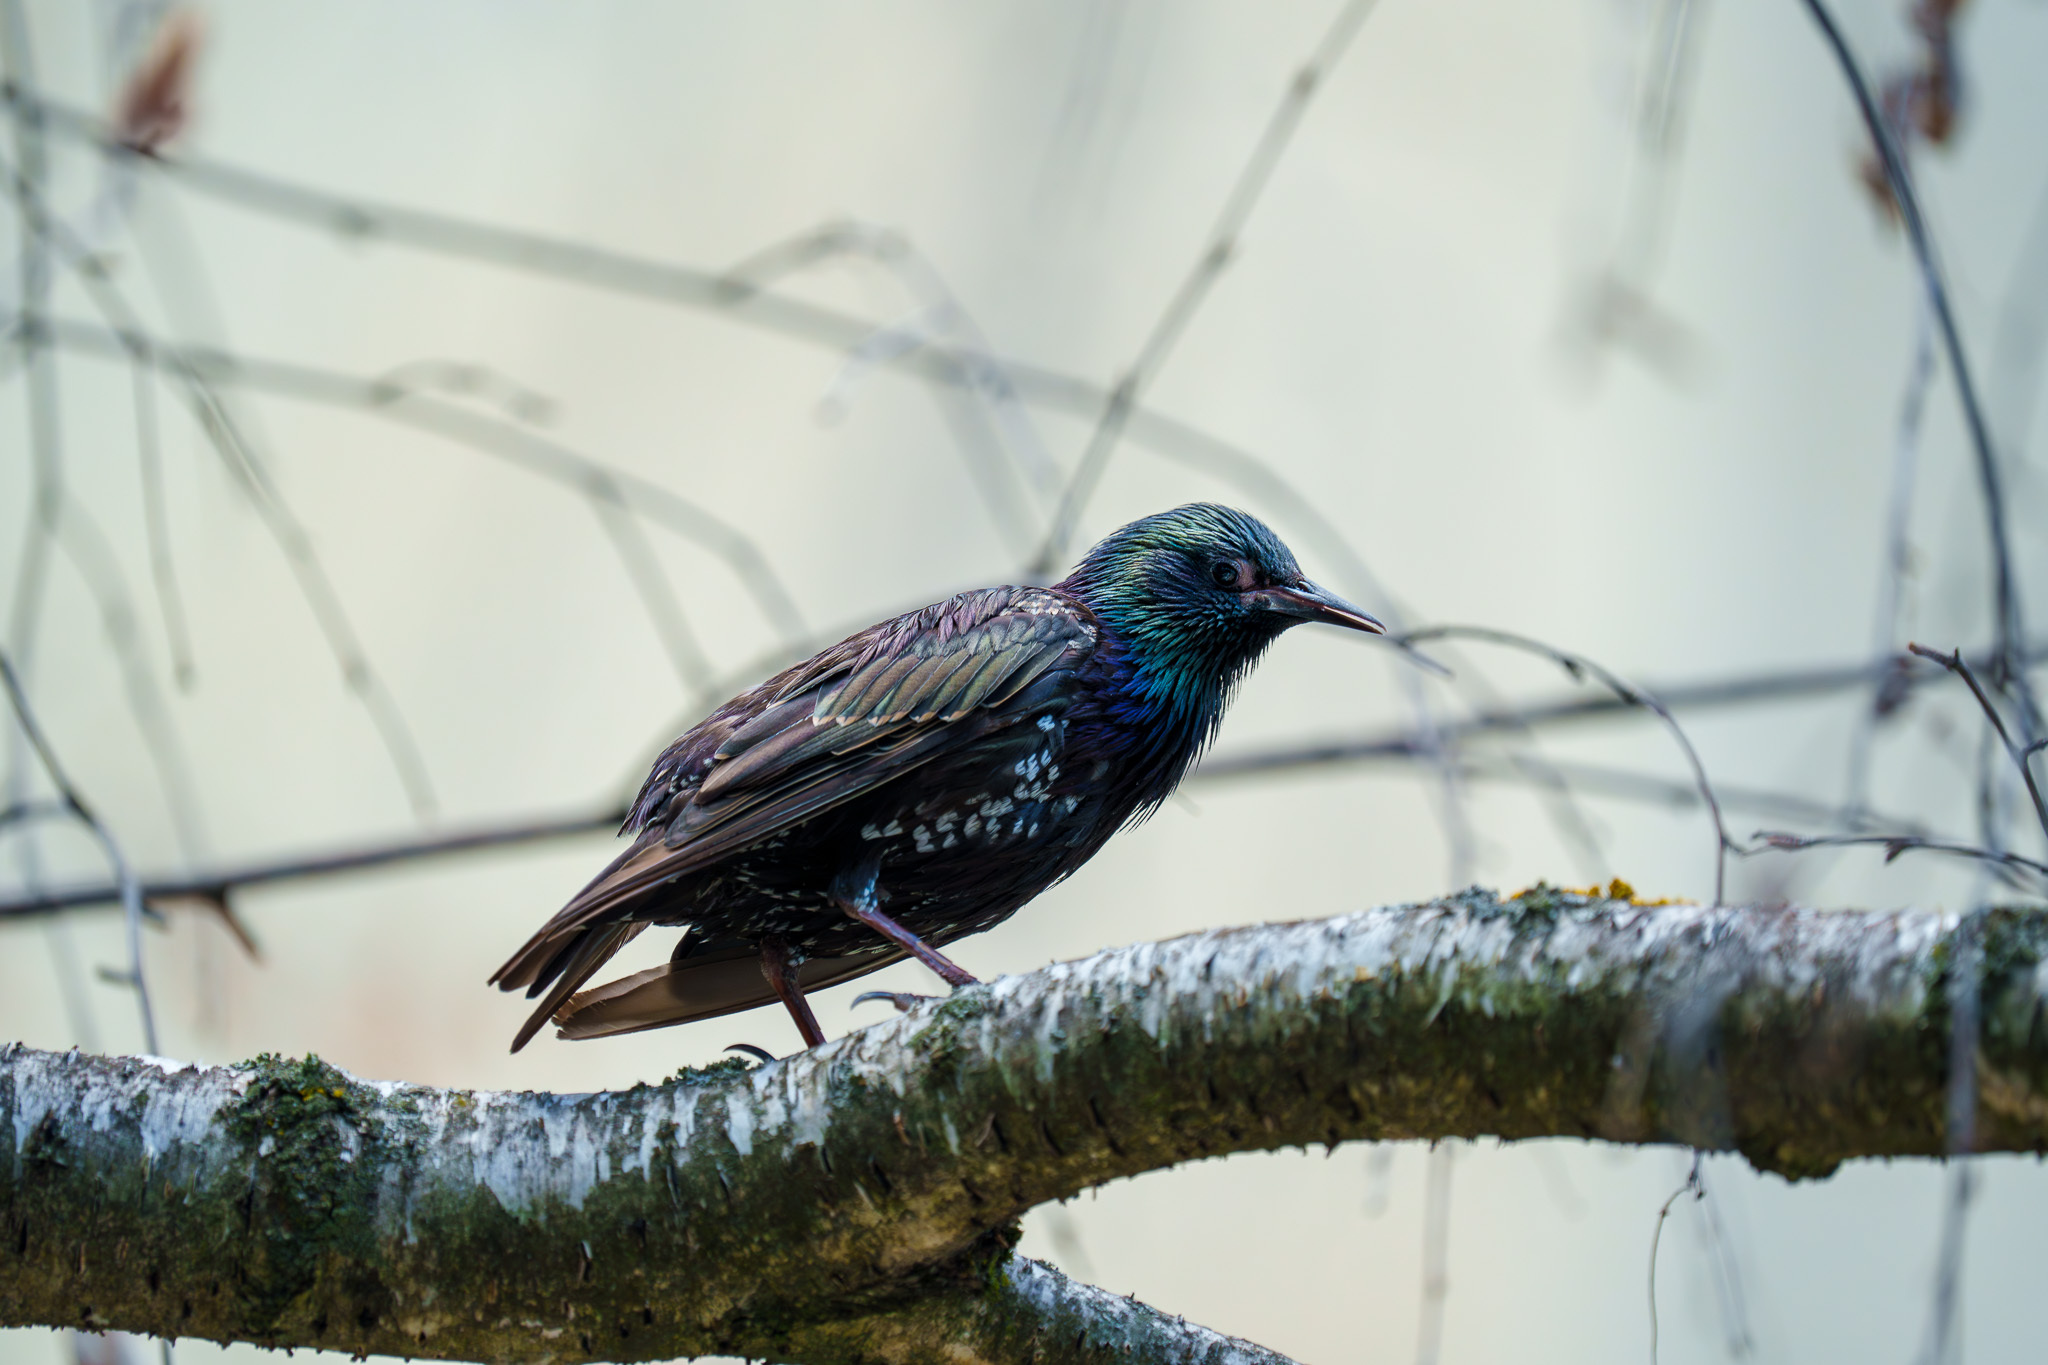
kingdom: Animalia
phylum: Chordata
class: Aves
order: Passeriformes
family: Sturnidae
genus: Sturnus
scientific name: Sturnus vulgaris
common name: Common starling
